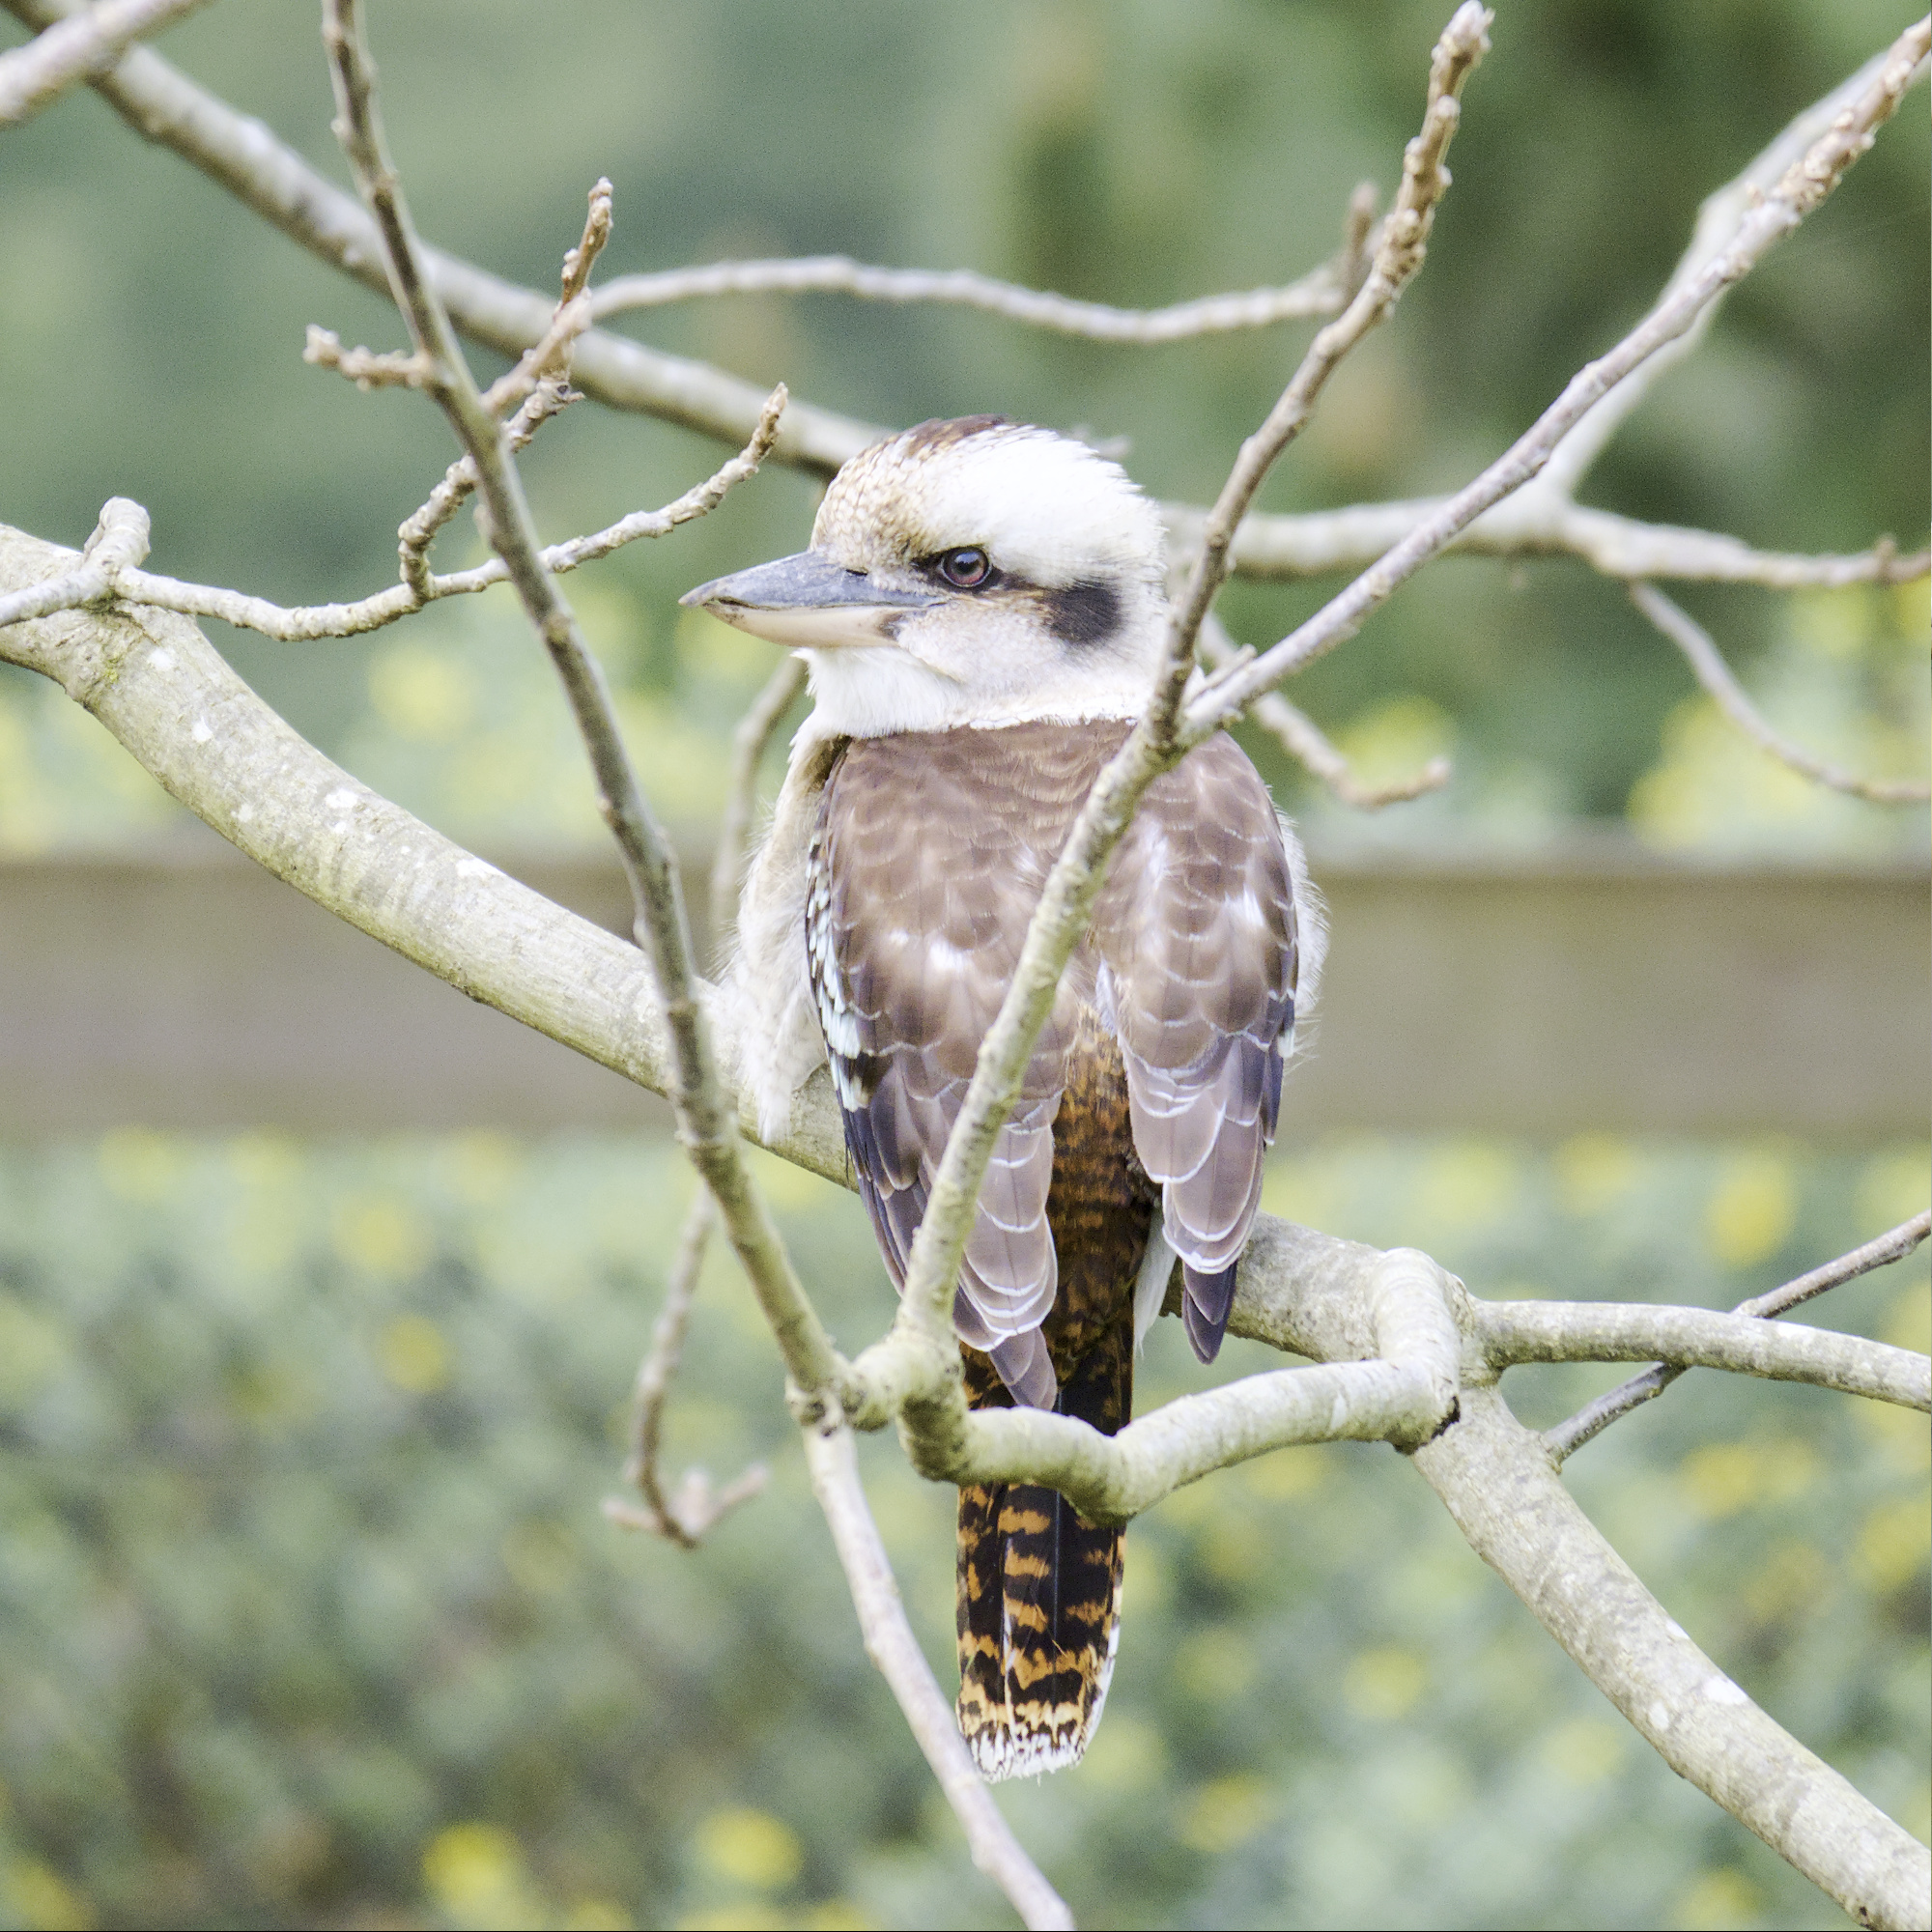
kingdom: Animalia
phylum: Chordata
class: Aves
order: Coraciiformes
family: Alcedinidae
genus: Dacelo
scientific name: Dacelo novaeguineae
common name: Laughing kookaburra
